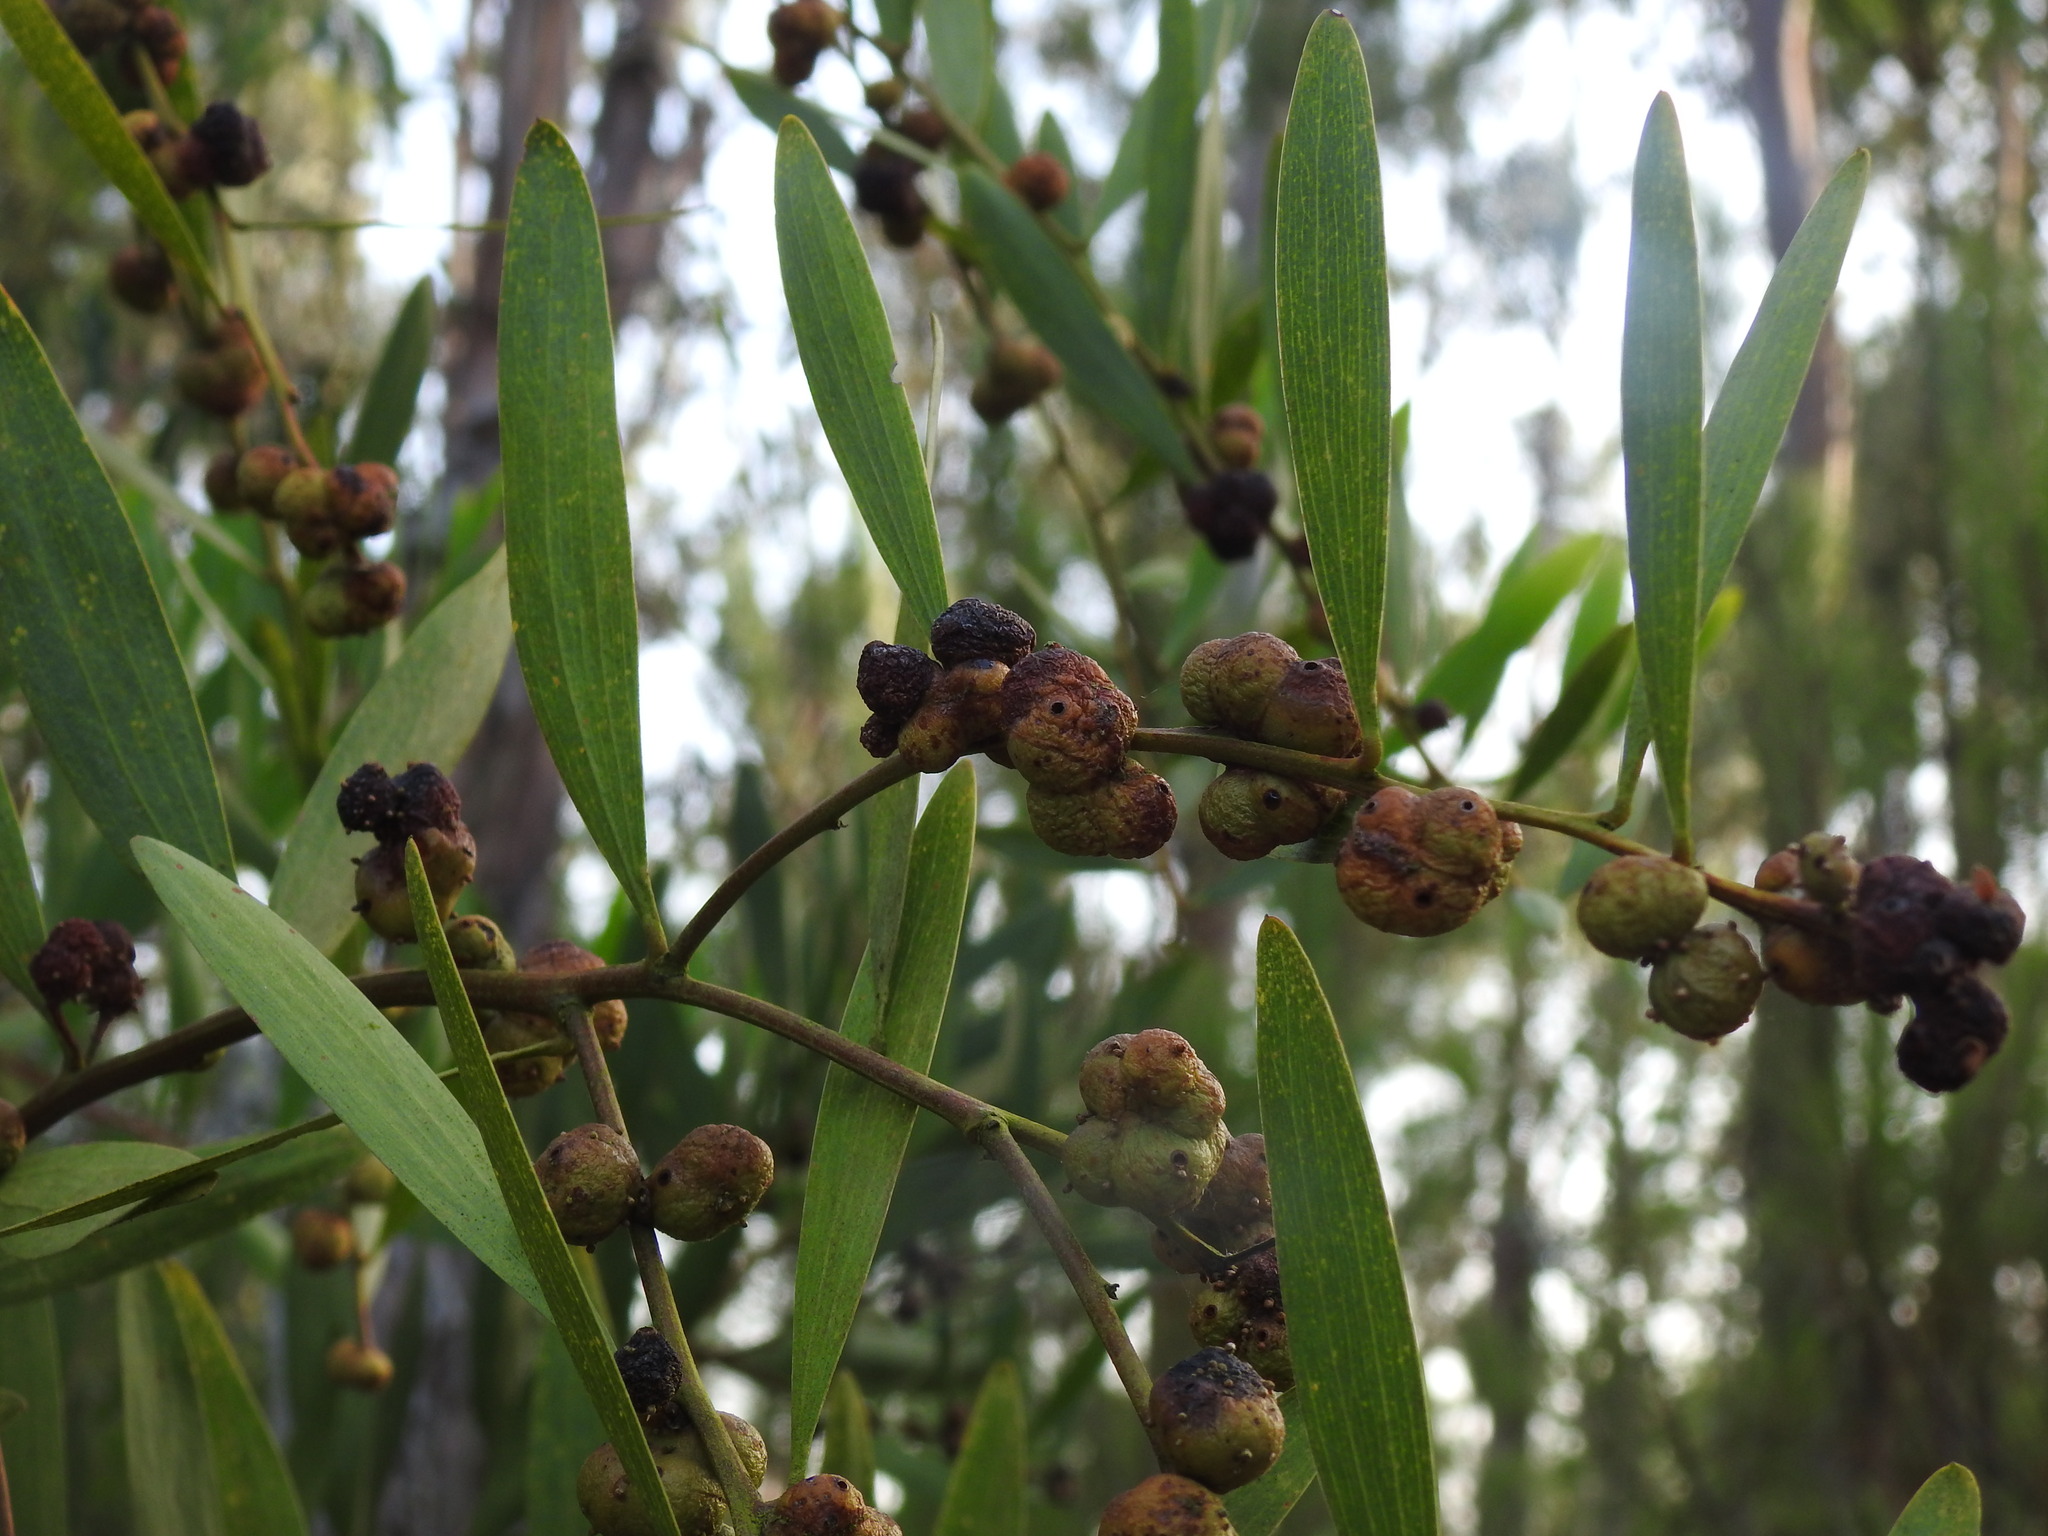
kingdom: Plantae
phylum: Tracheophyta
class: Magnoliopsida
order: Fabales
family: Fabaceae
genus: Acacia
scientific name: Acacia longifolia
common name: Sydney golden wattle
